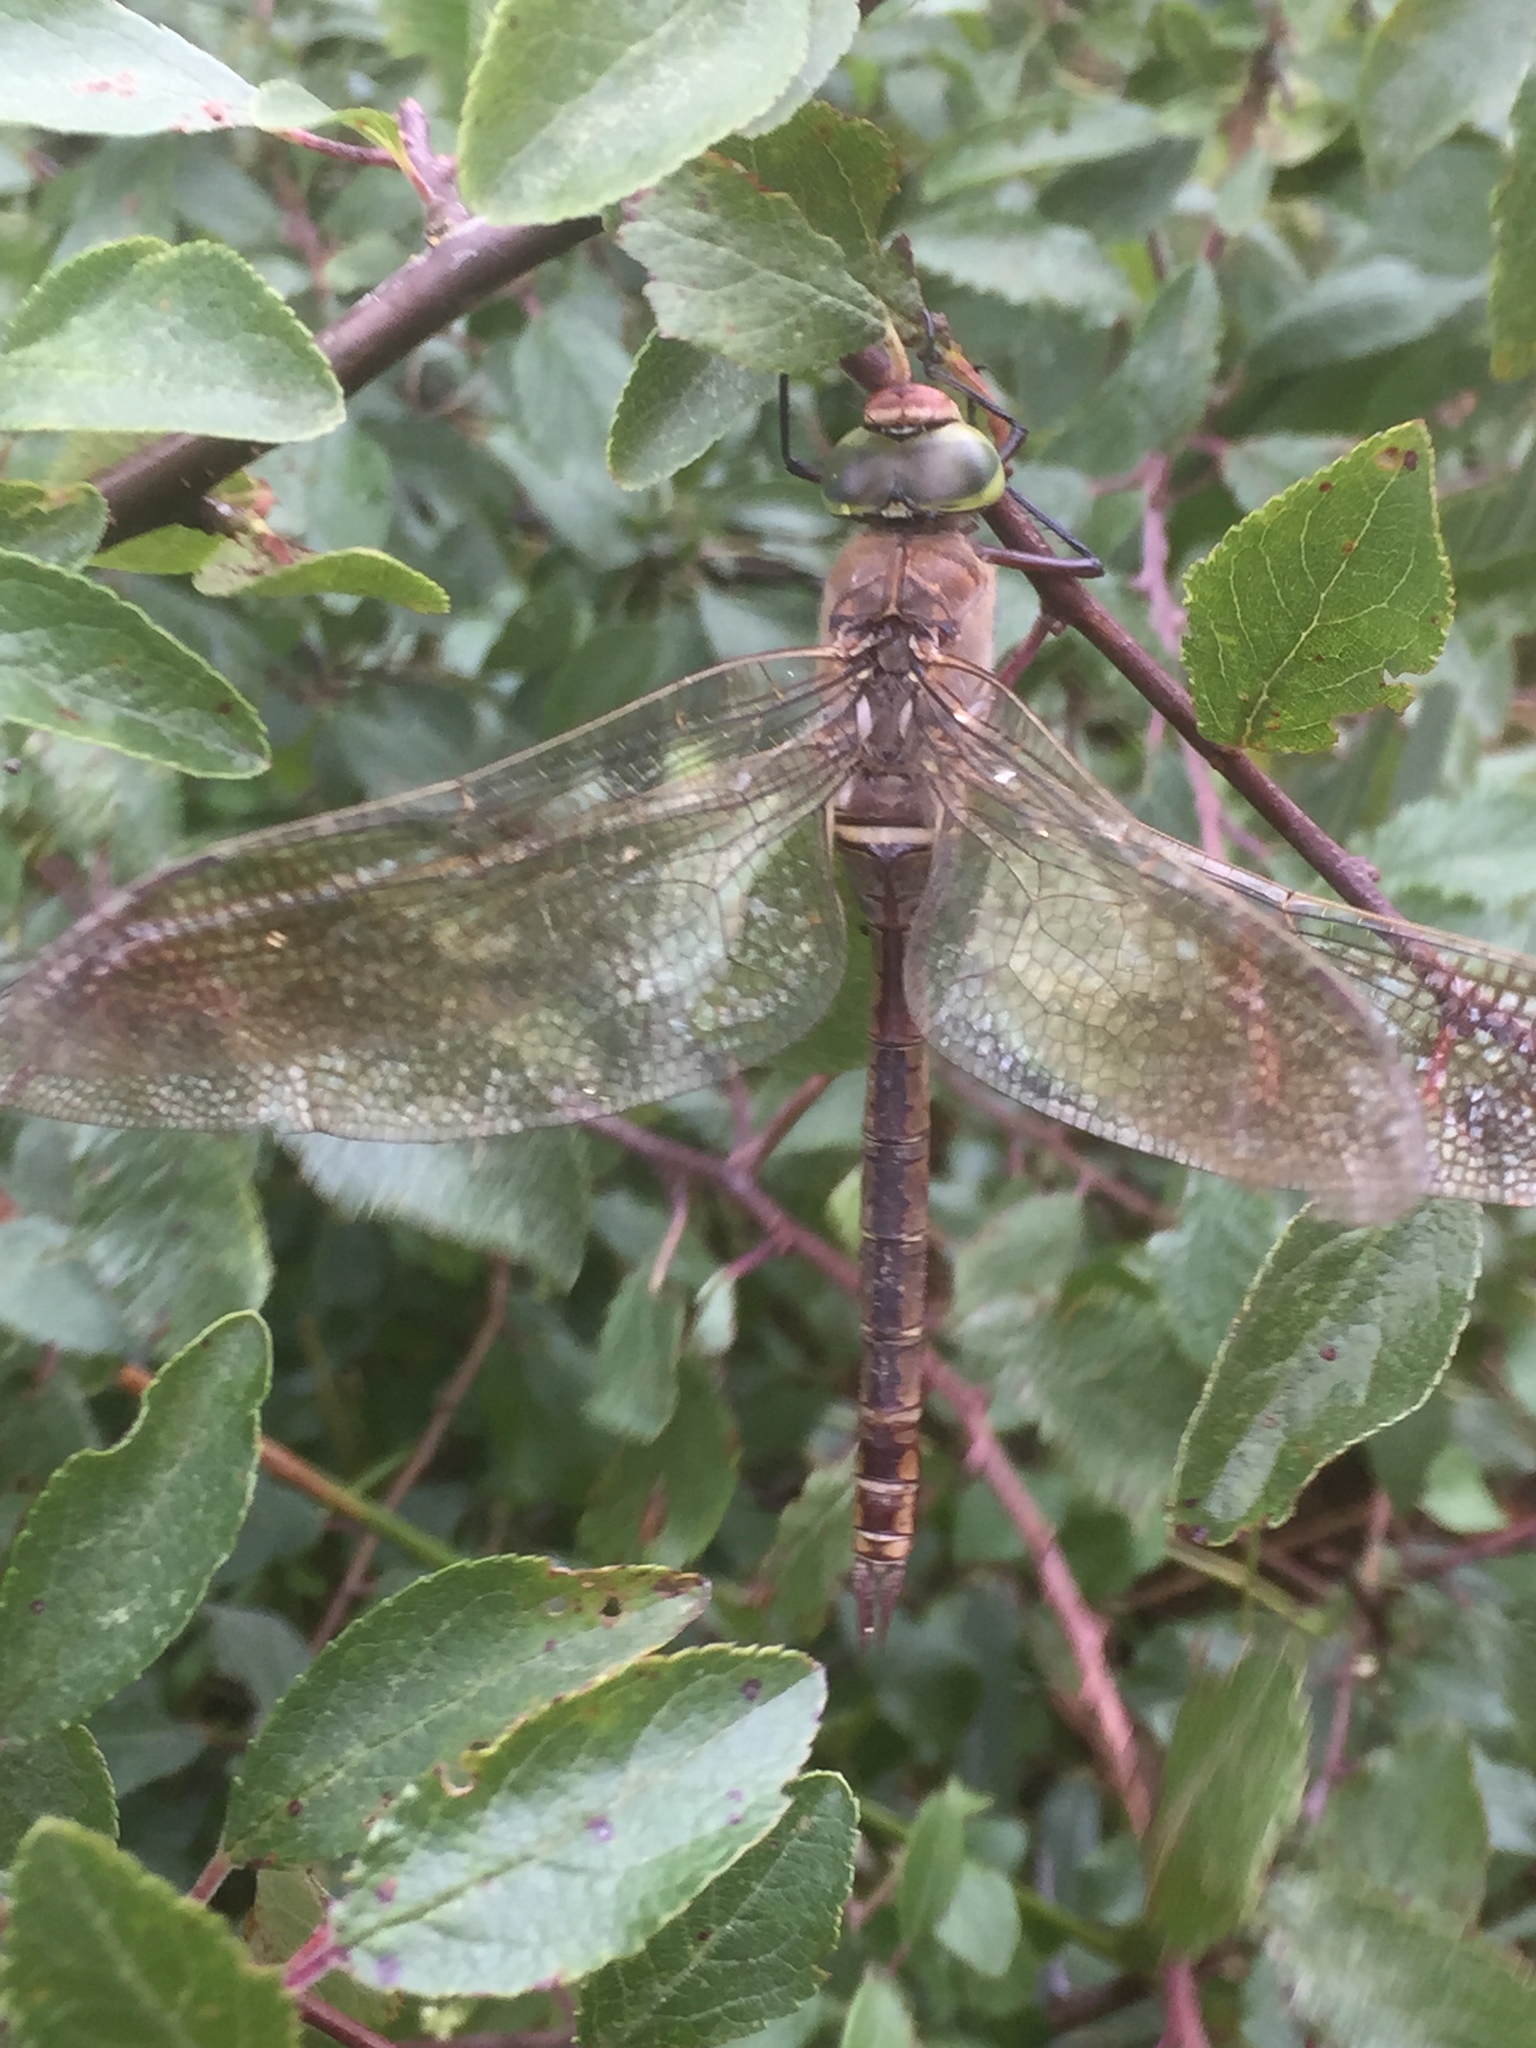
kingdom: Animalia
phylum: Arthropoda
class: Insecta
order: Odonata
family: Aeshnidae
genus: Anax
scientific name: Anax parthenope
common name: Lesser emperor
